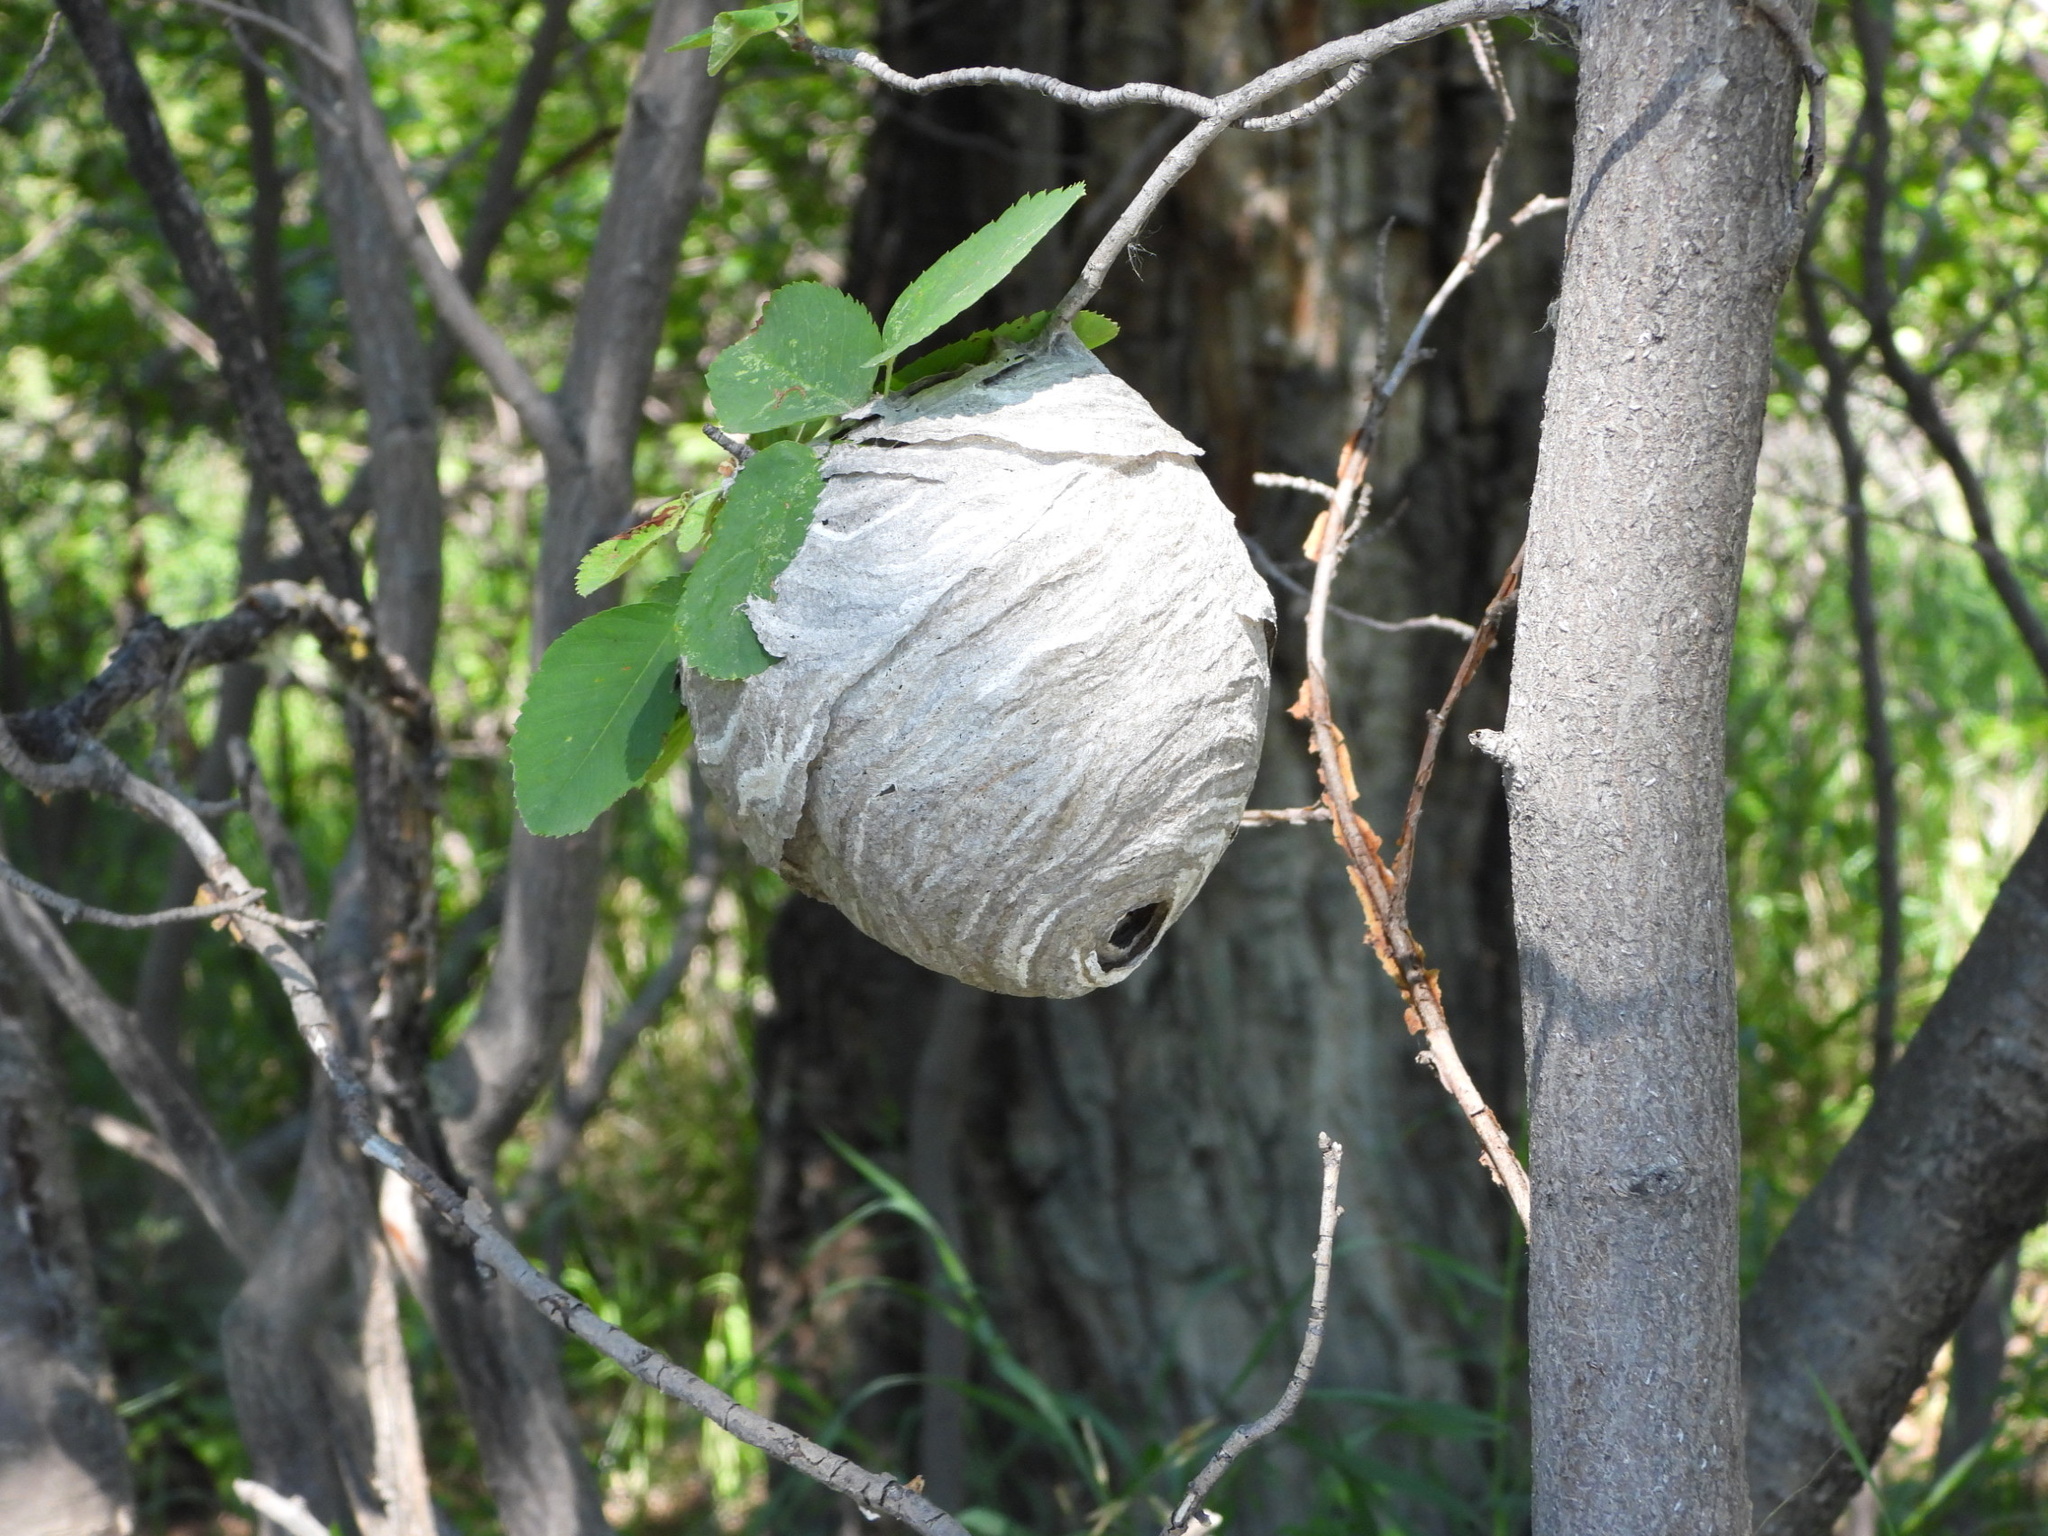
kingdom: Animalia
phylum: Arthropoda
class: Insecta
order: Hymenoptera
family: Vespidae
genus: Dolichovespula
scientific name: Dolichovespula
